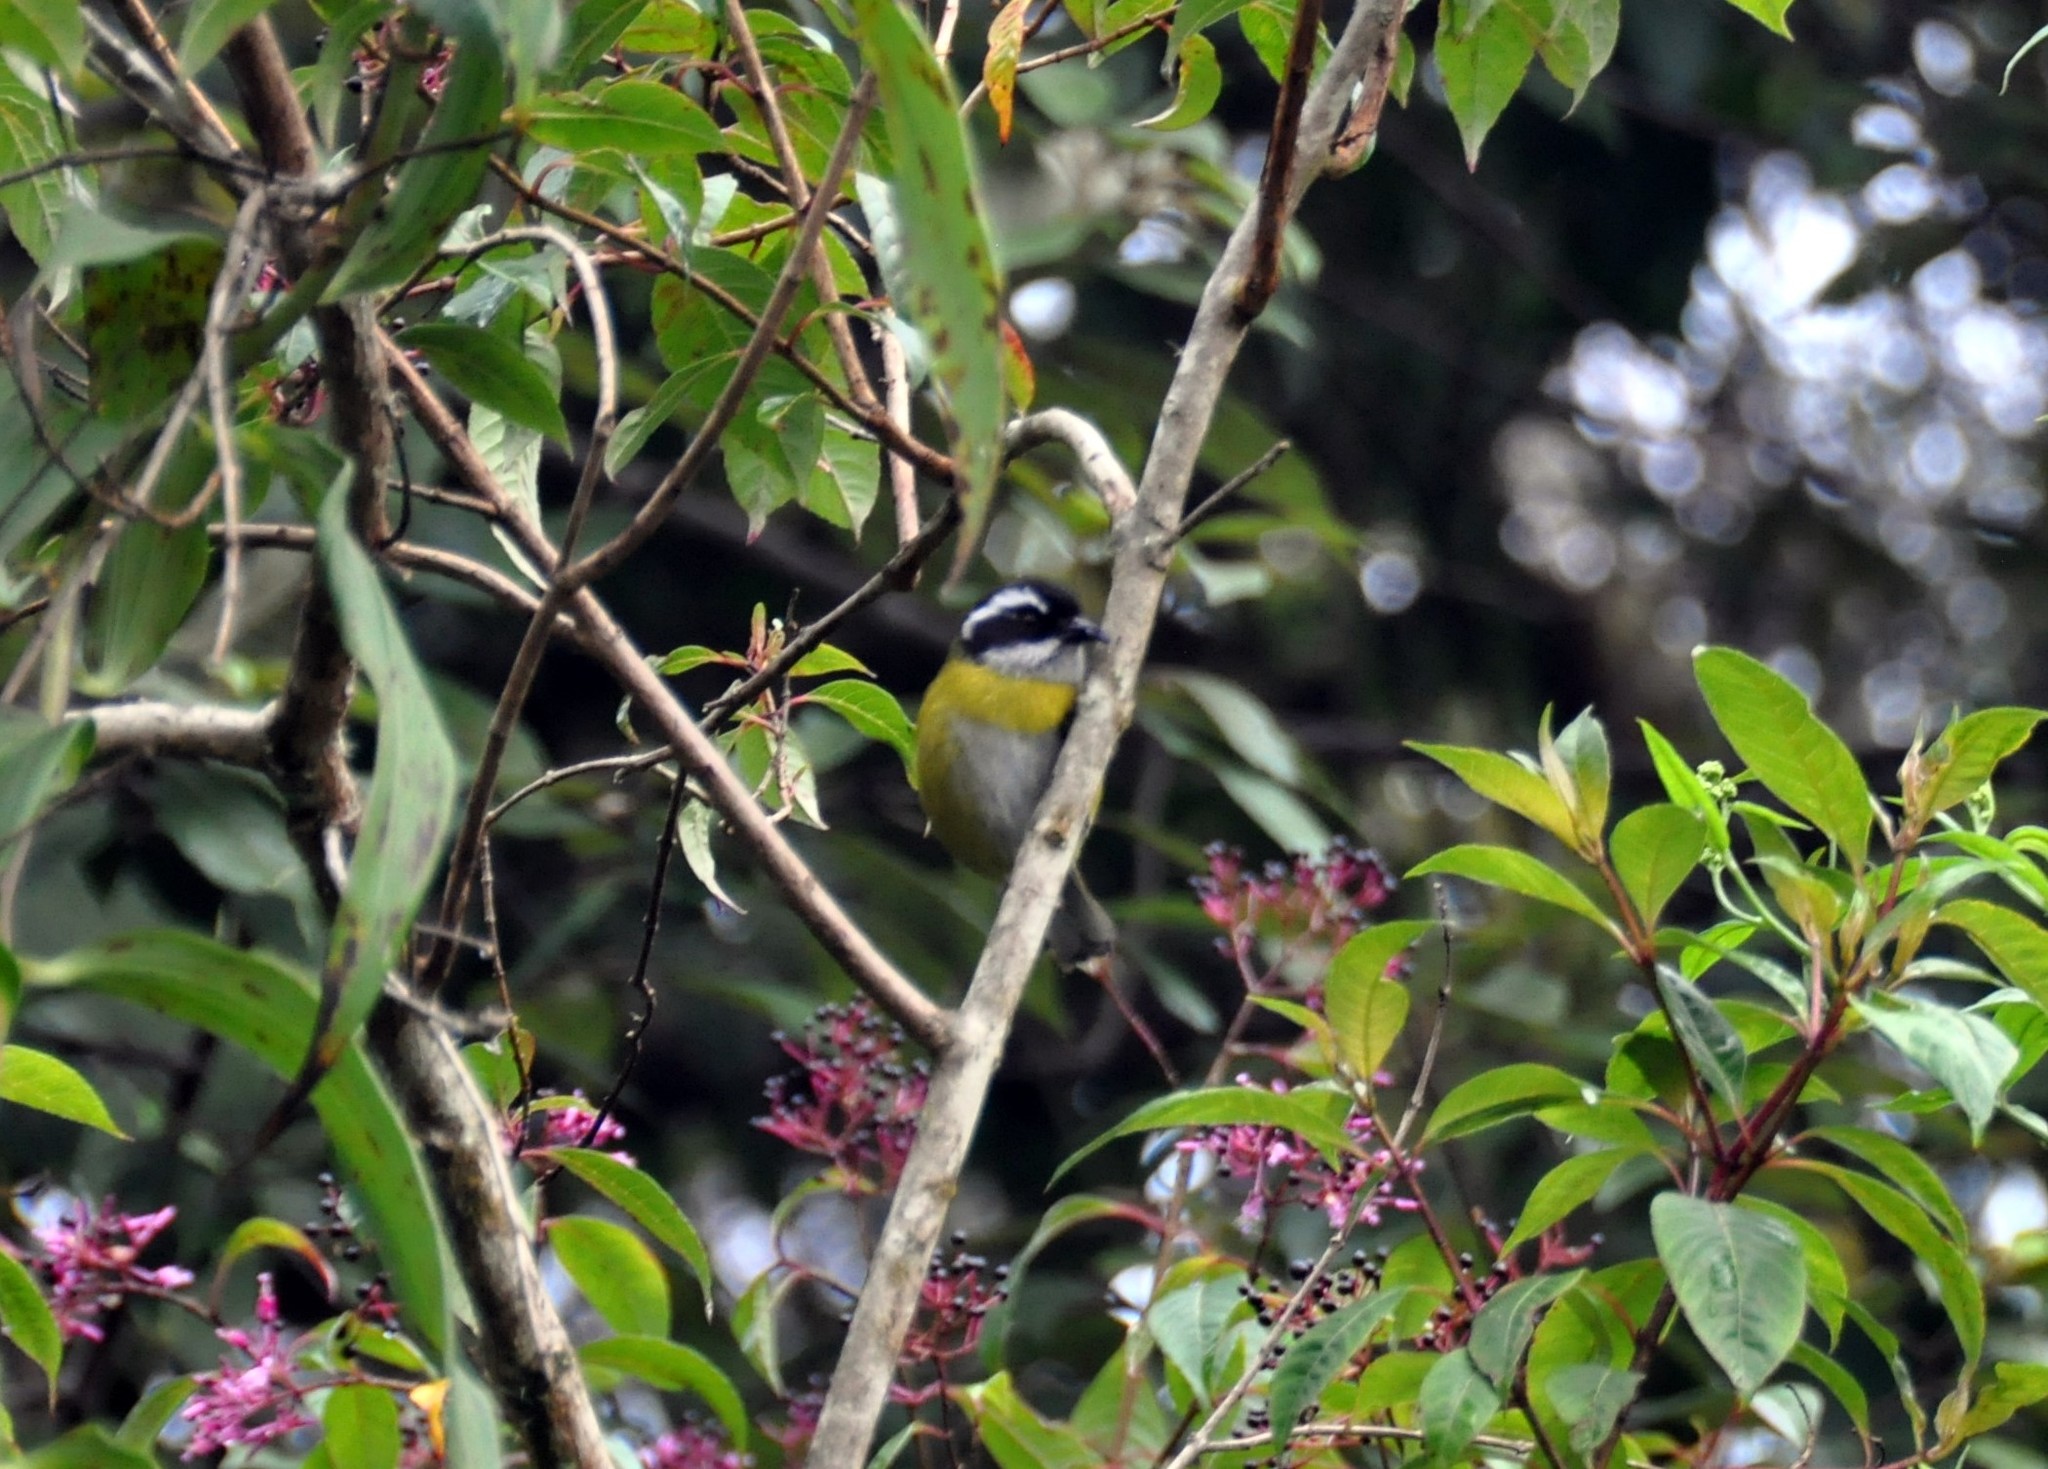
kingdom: Animalia
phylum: Chordata
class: Aves
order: Passeriformes
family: Passerellidae
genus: Chlorospingus
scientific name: Chlorospingus pileatus
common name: Sooty-capped bush-tanager
